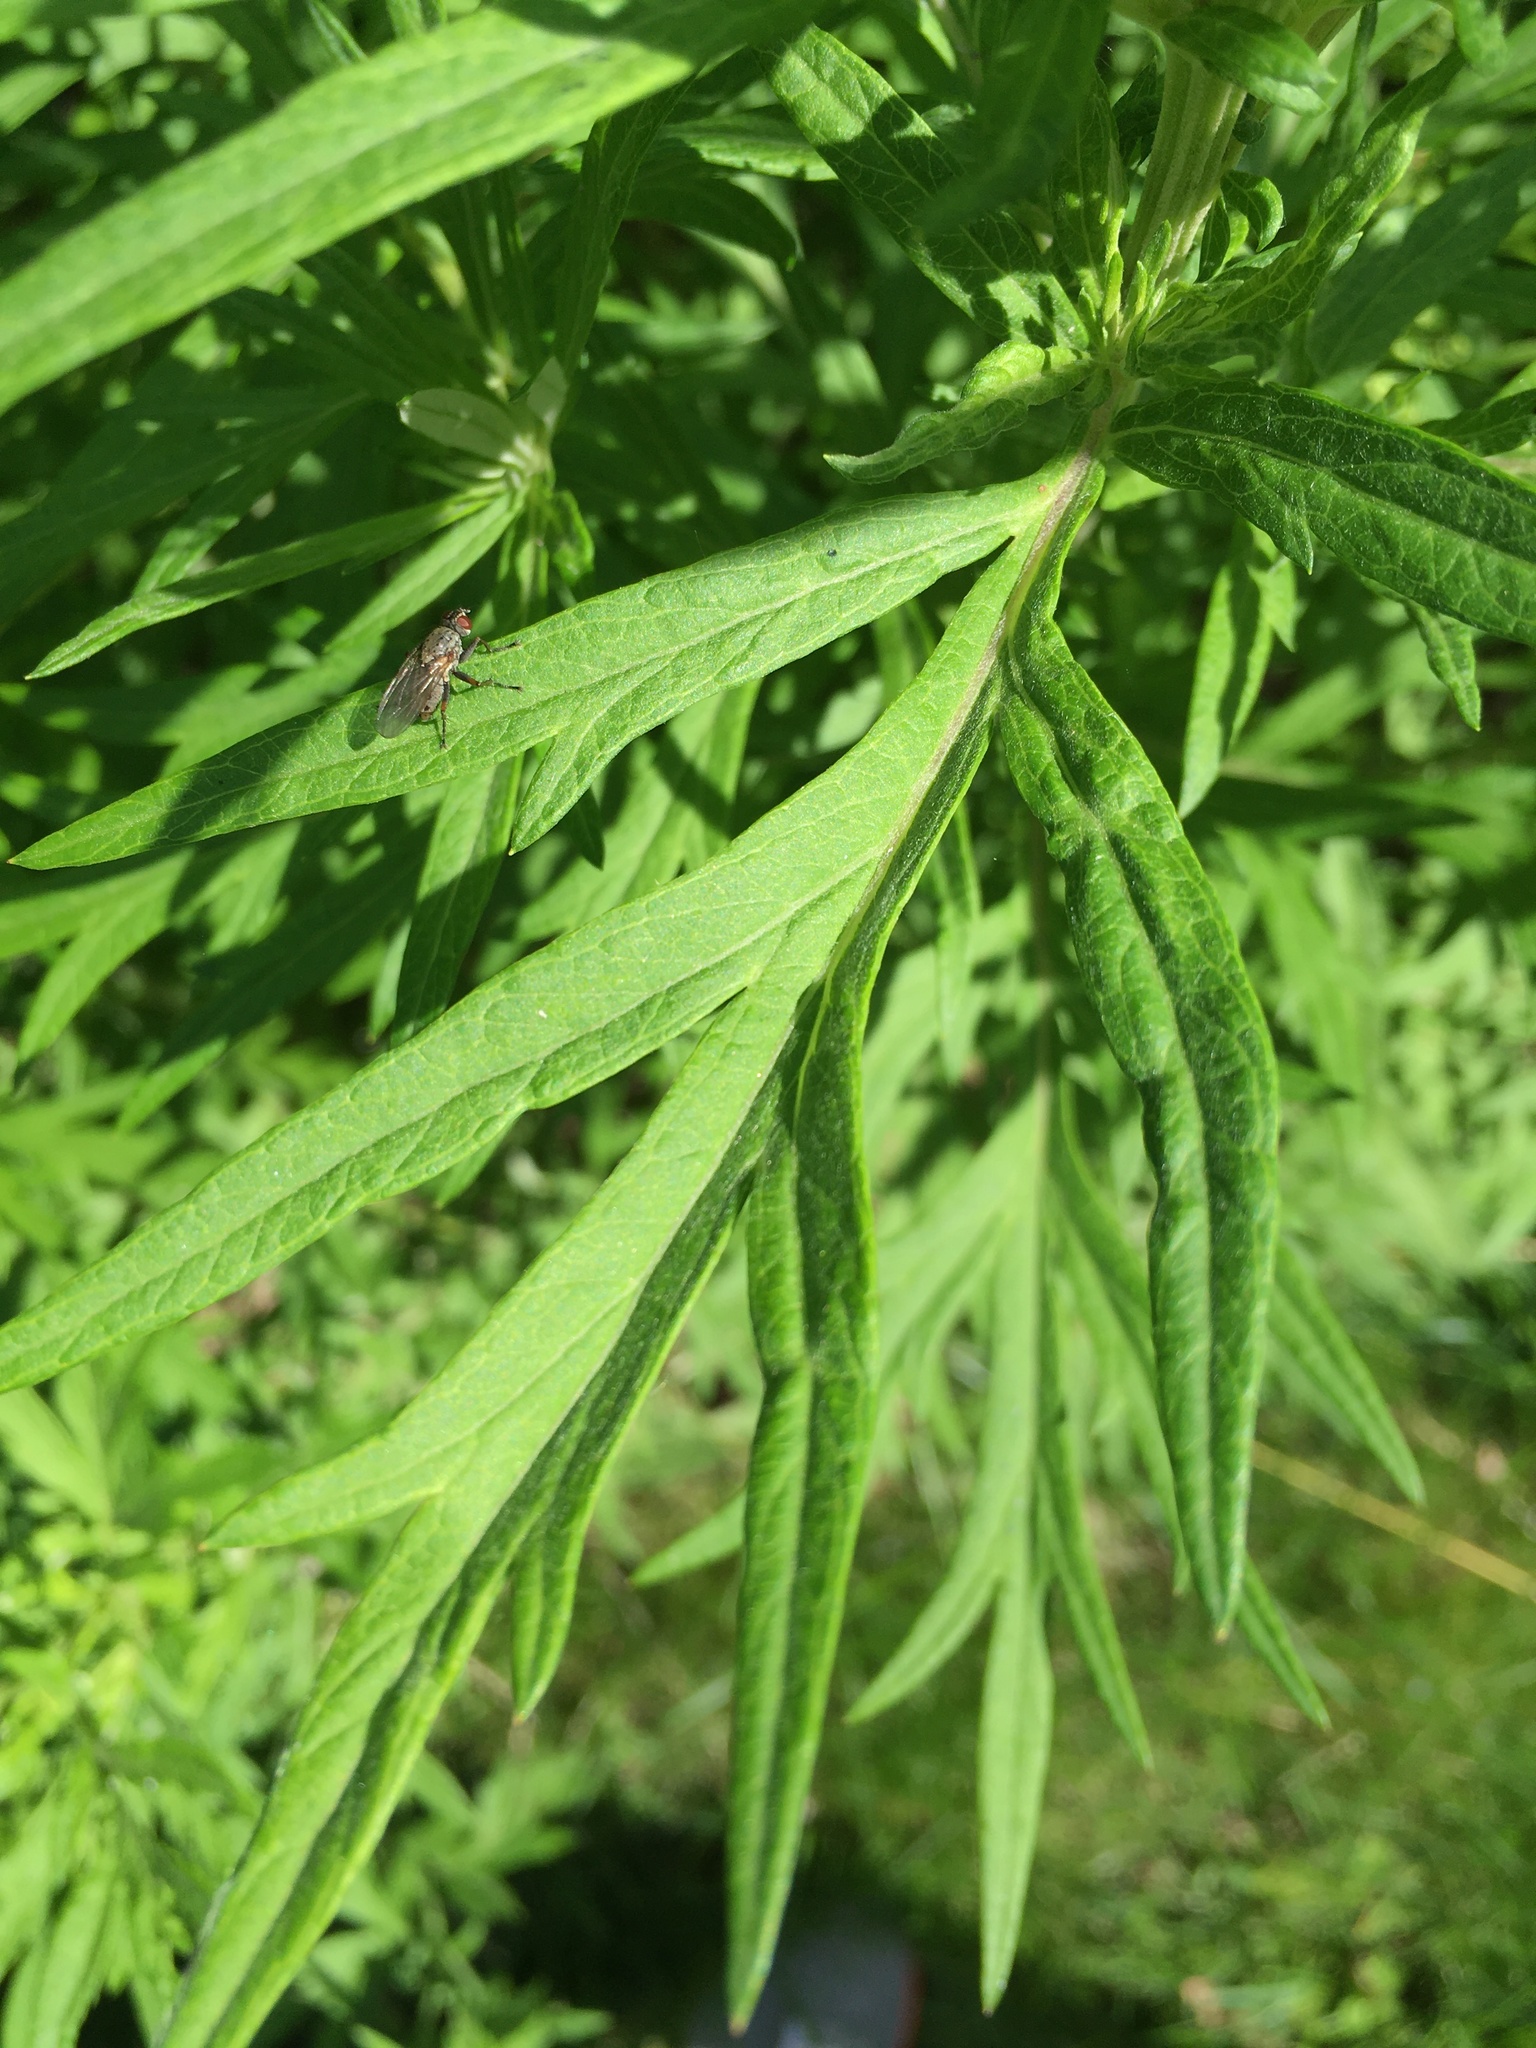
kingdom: Plantae
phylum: Tracheophyta
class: Magnoliopsida
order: Asterales
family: Asteraceae
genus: Artemisia
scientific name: Artemisia vulgaris
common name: Mugwort
